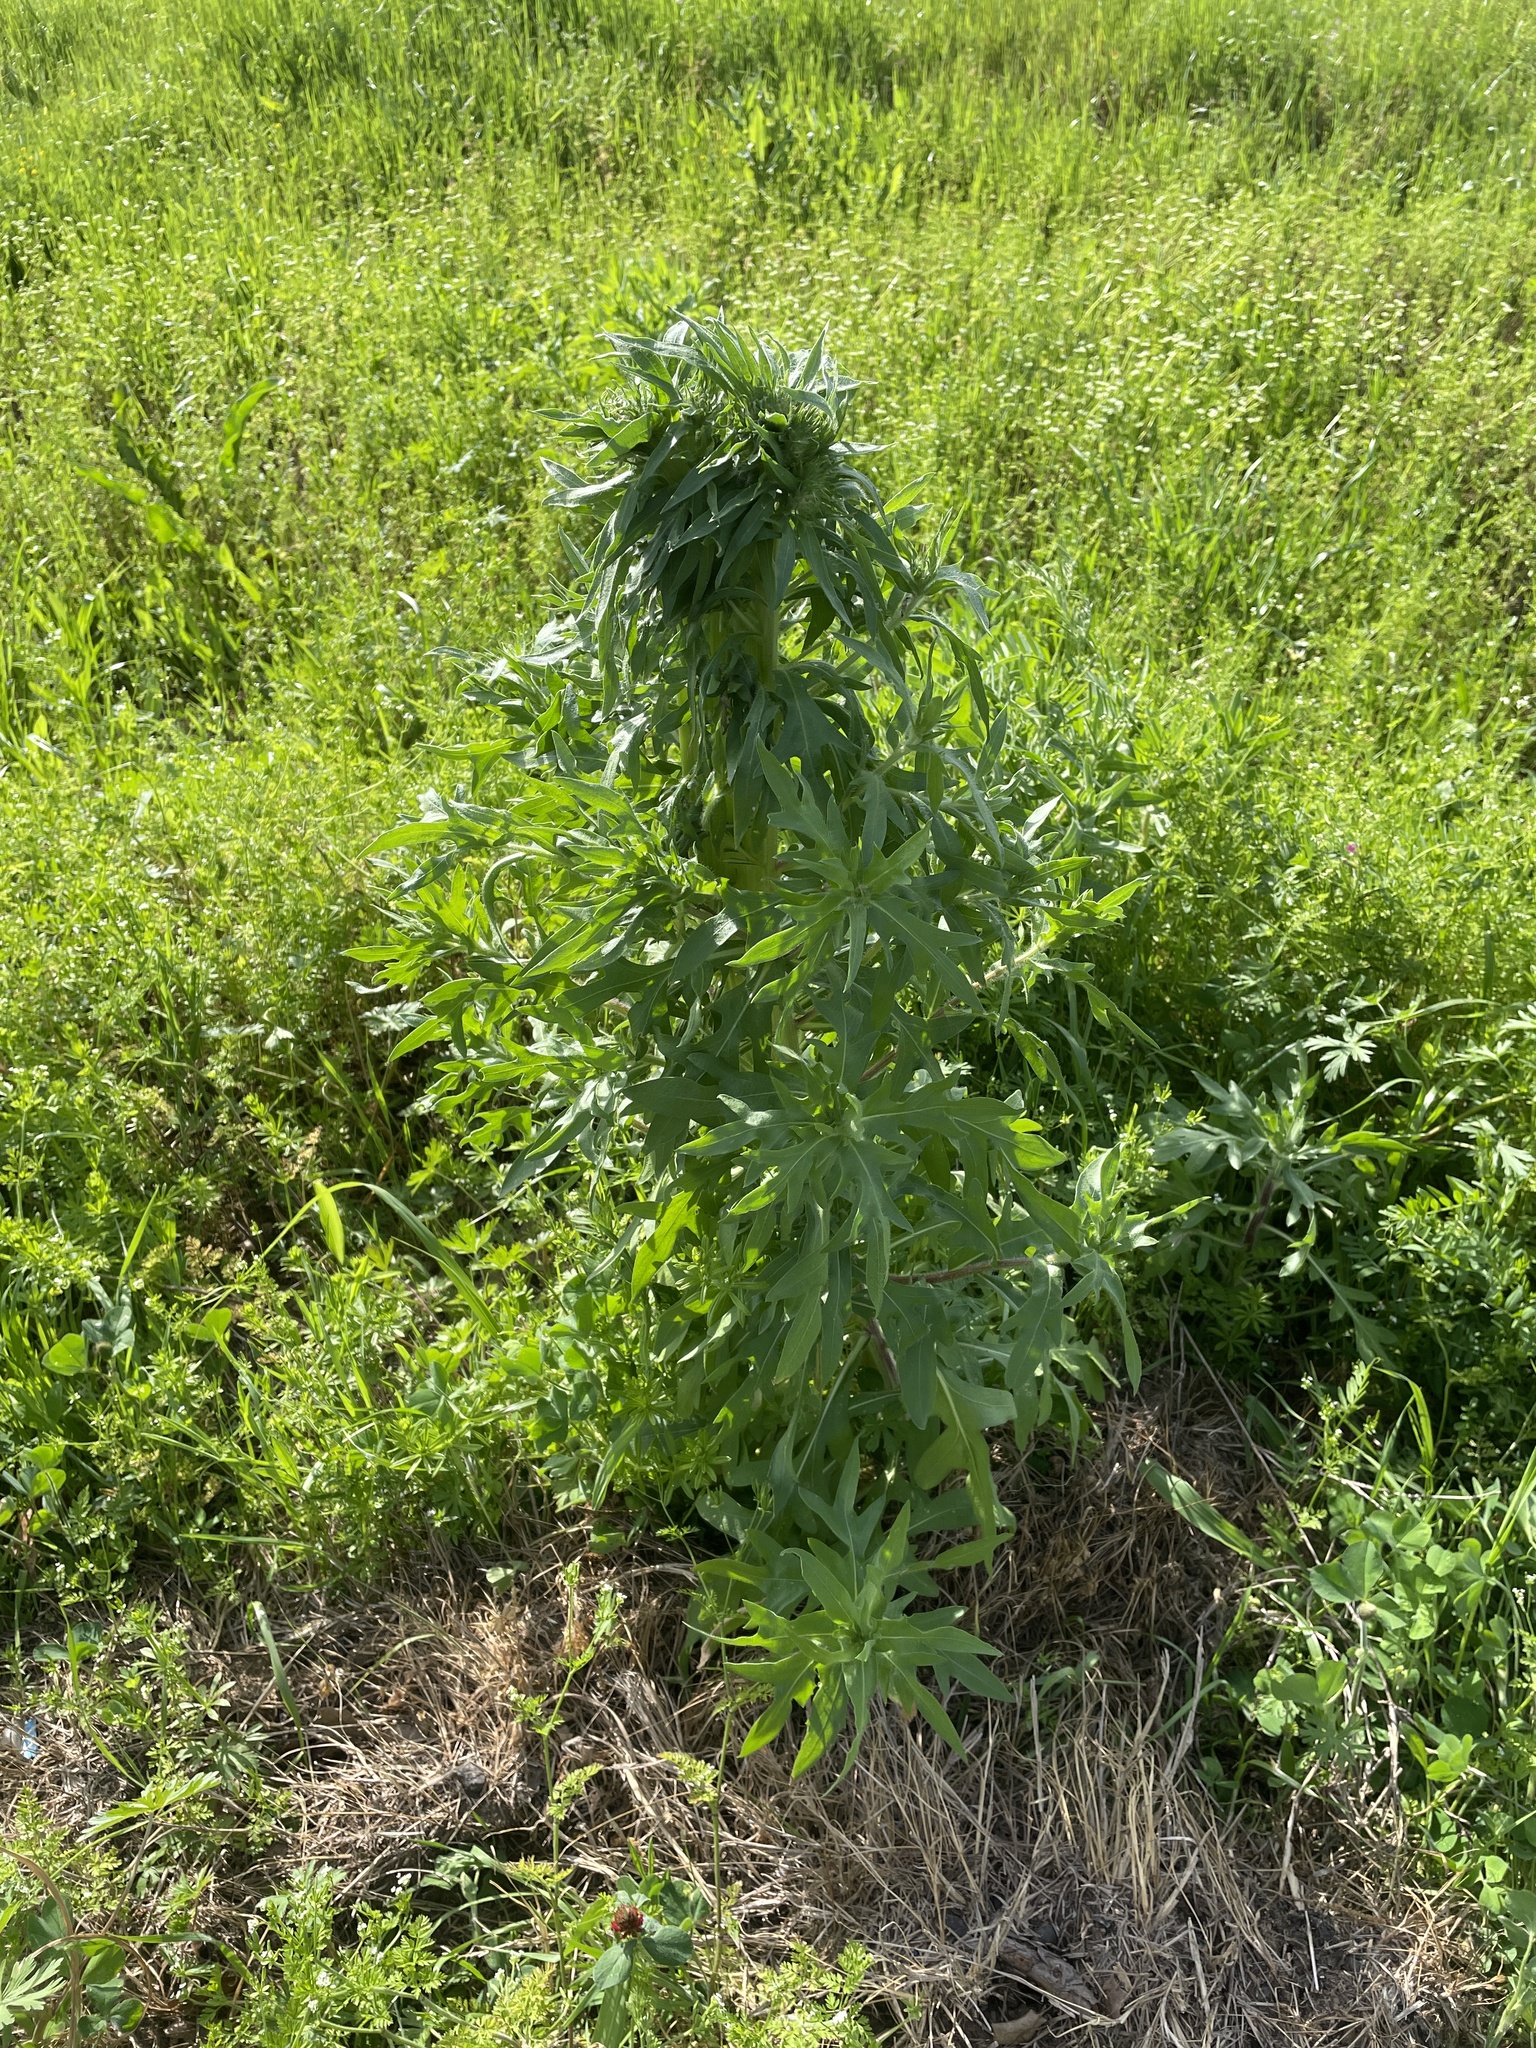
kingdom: Plantae
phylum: Tracheophyta
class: Magnoliopsida
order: Asterales
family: Asteraceae
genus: Gaillardia
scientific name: Gaillardia pulchella
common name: Firewheel
